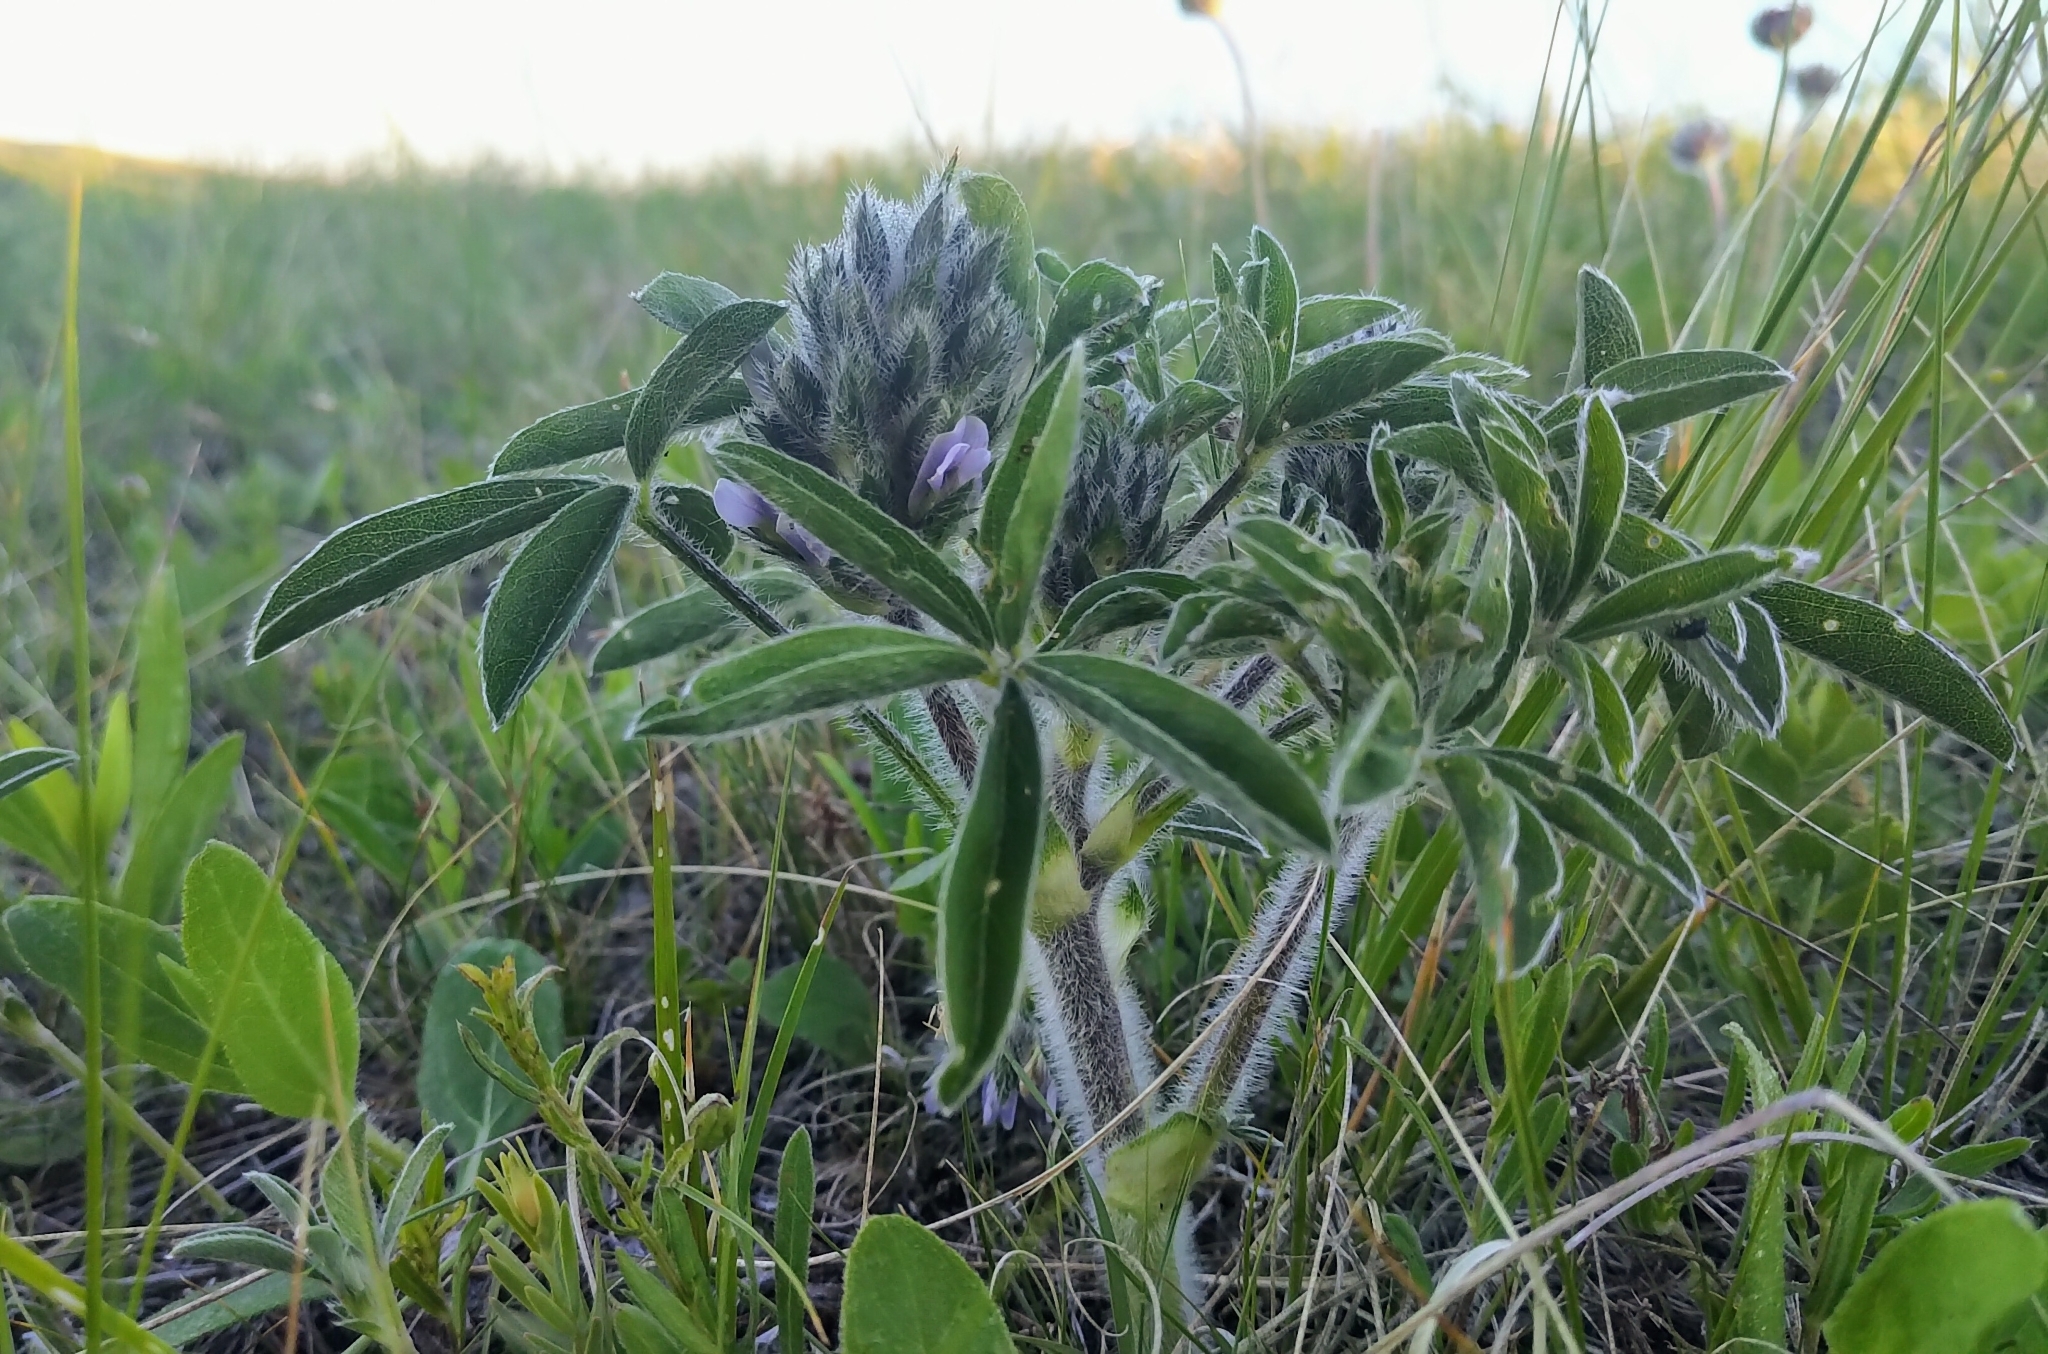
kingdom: Plantae
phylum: Tracheophyta
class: Magnoliopsida
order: Fabales
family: Fabaceae
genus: Pediomelum
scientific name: Pediomelum esculentum
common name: Indian-turnip
